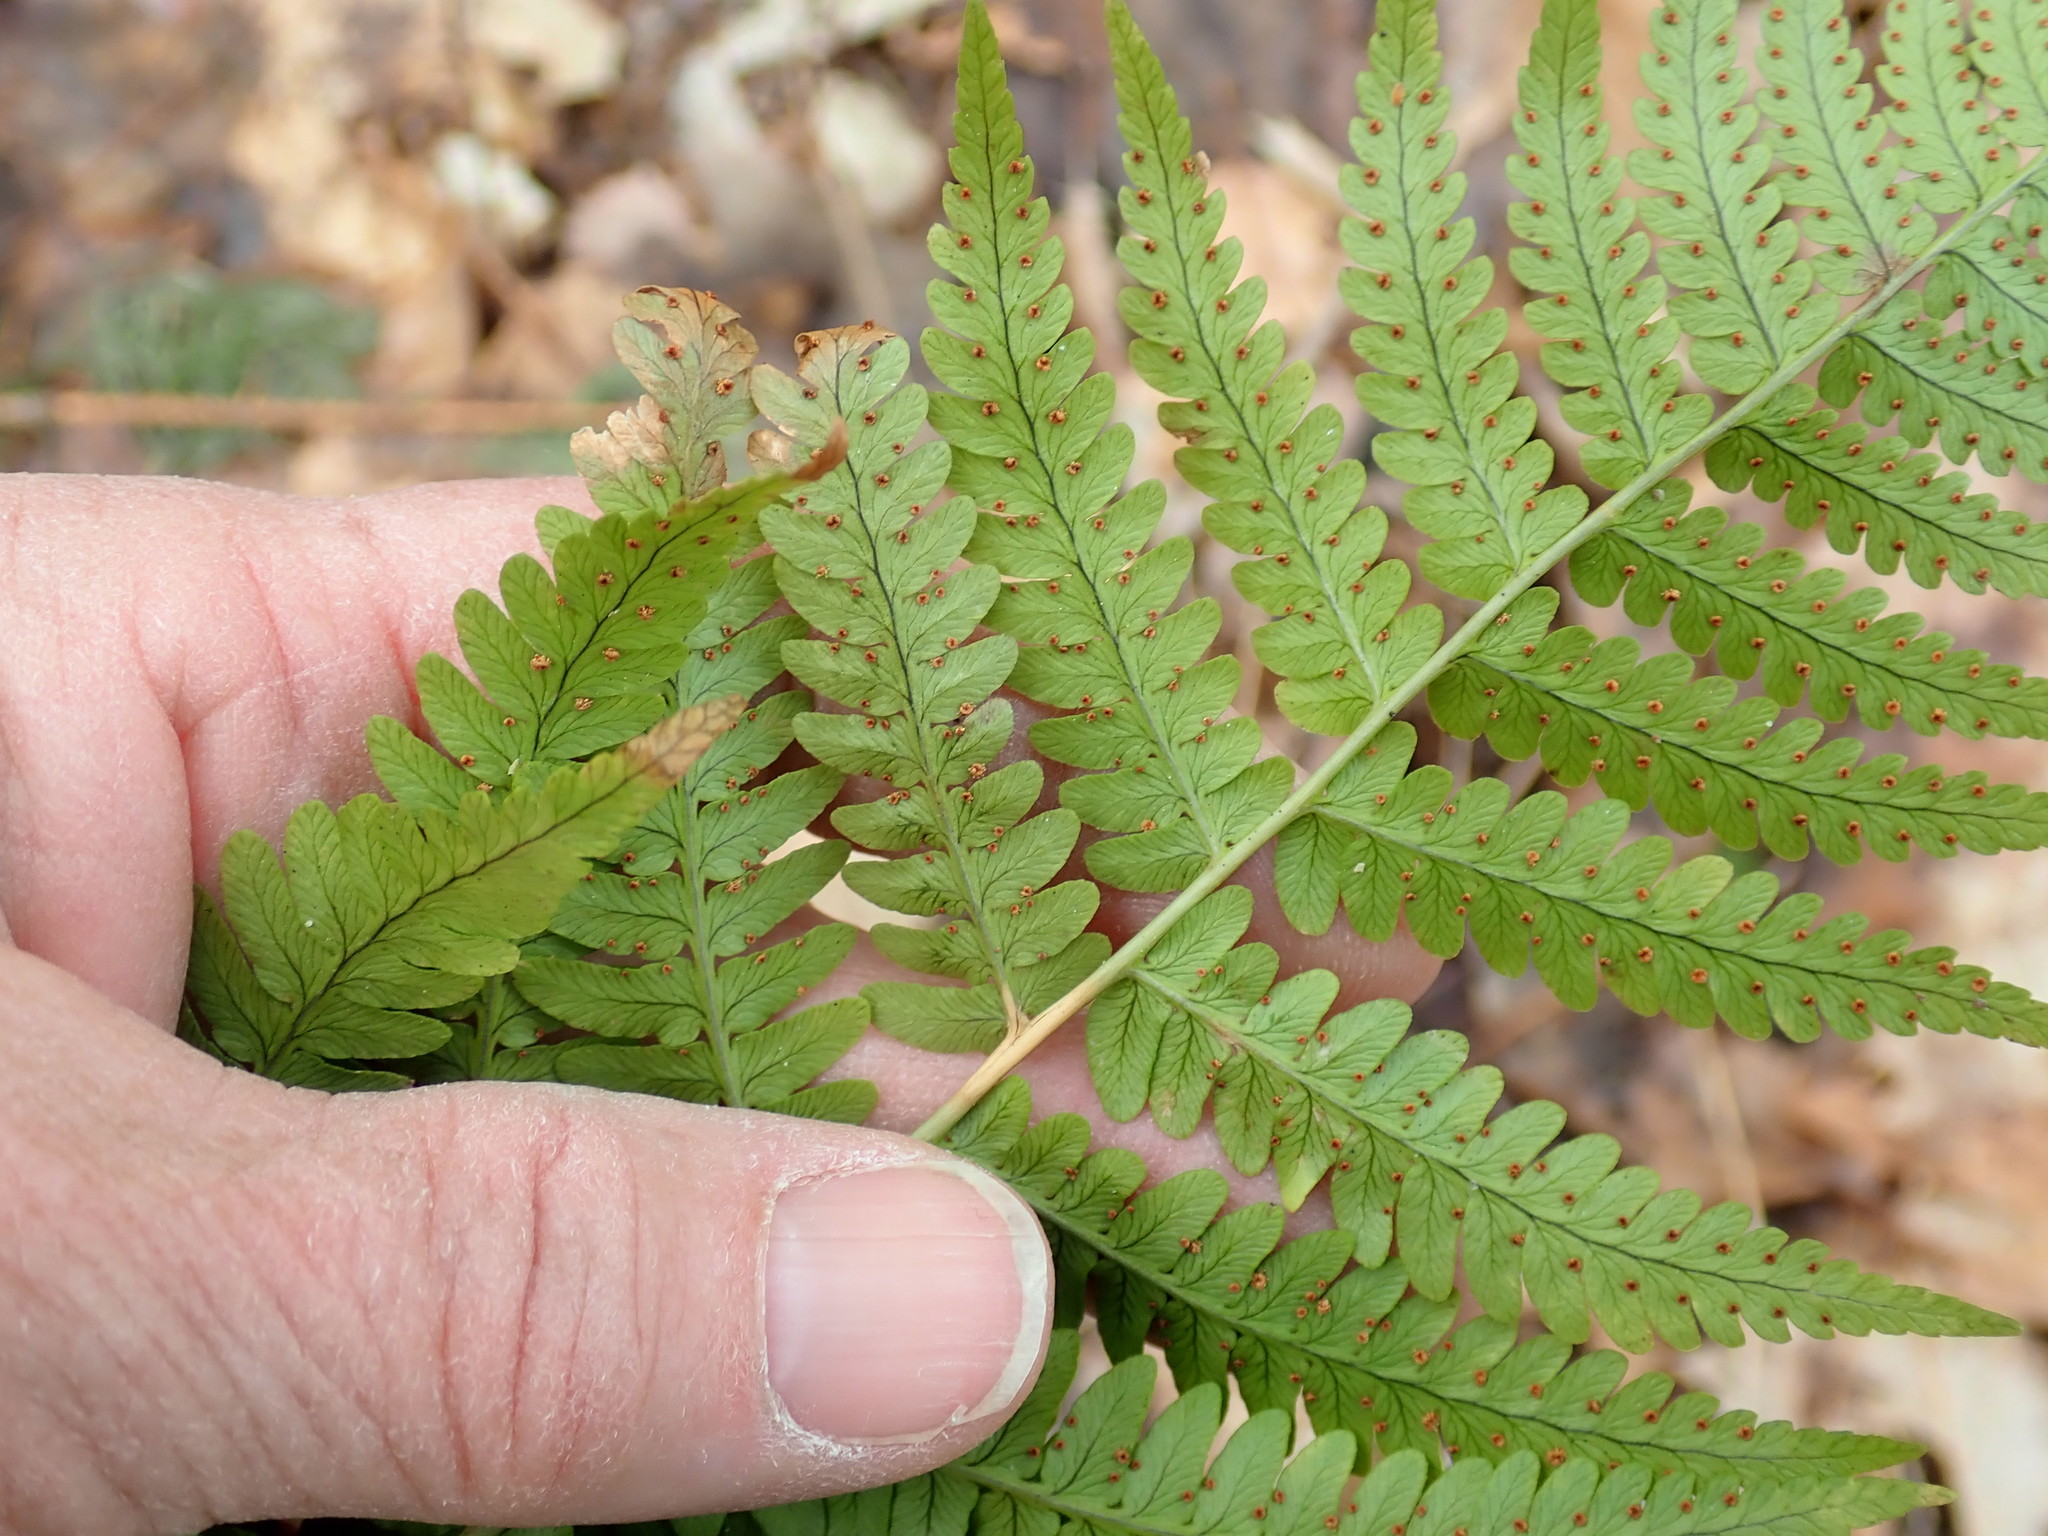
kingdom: Plantae
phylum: Tracheophyta
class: Polypodiopsida
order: Polypodiales
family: Dryopteridaceae
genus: Dryopteris
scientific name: Dryopteris marginalis
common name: Marginal wood fern
